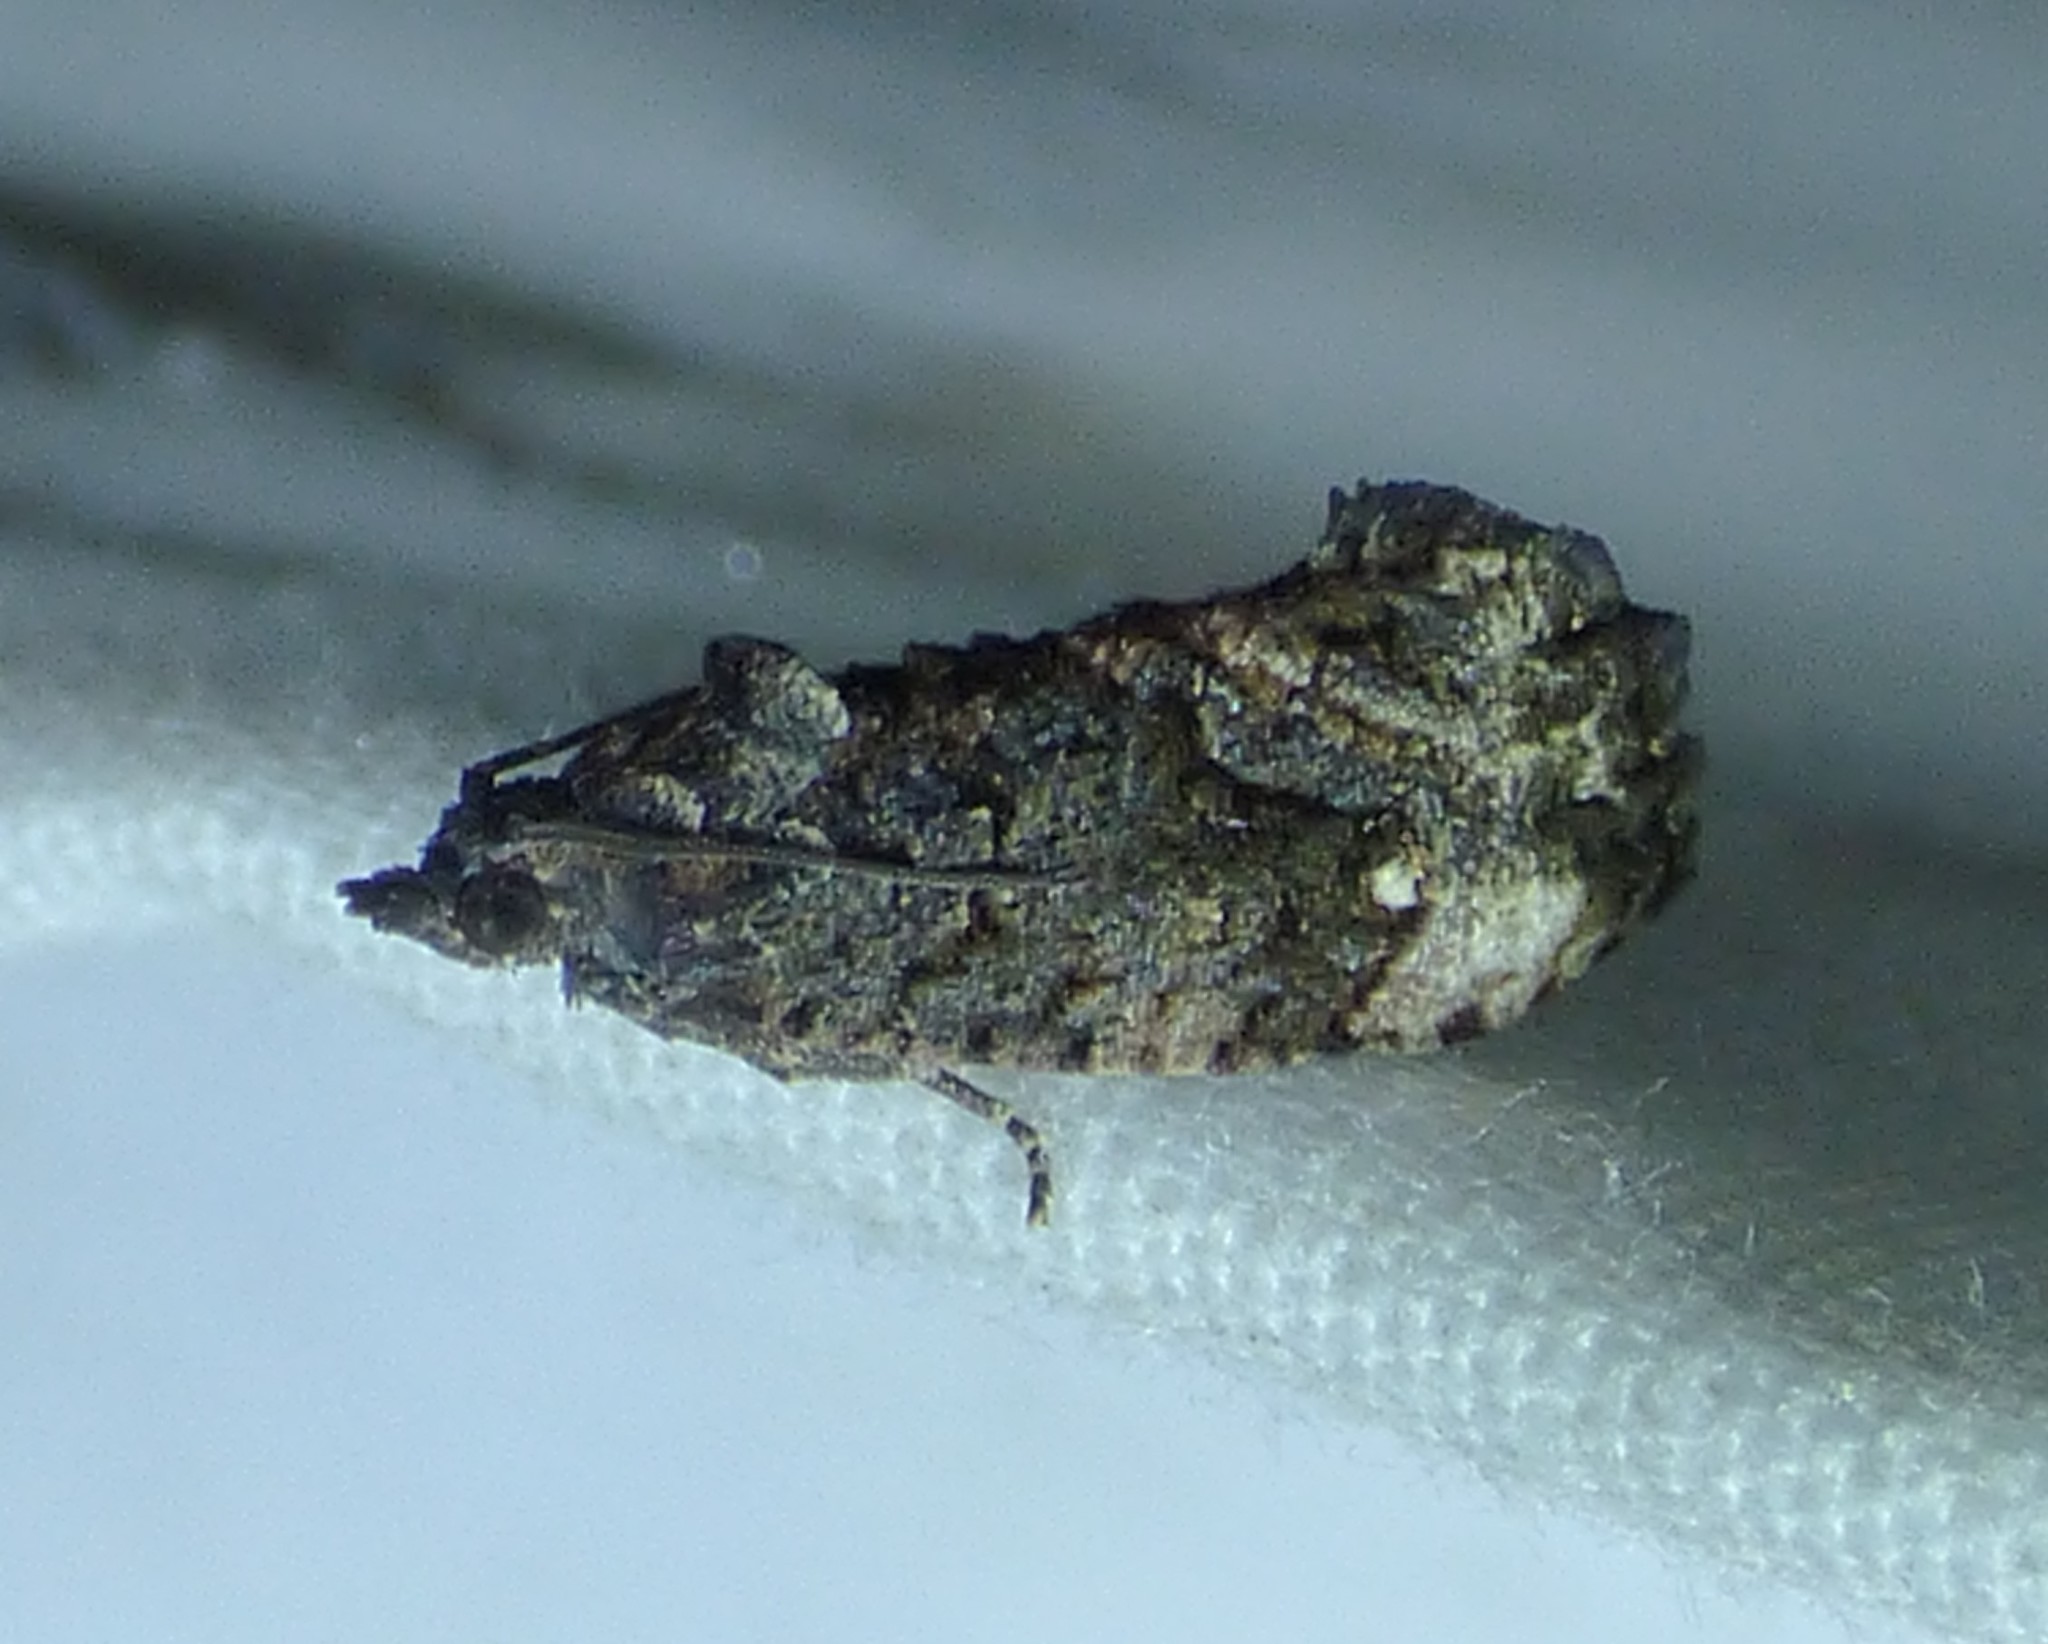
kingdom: Animalia
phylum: Arthropoda
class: Insecta
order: Lepidoptera
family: Tortricidae
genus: Gymnandrosoma
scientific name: Gymnandrosoma punctidiscanum
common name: Dotted ecdytolopha moth
